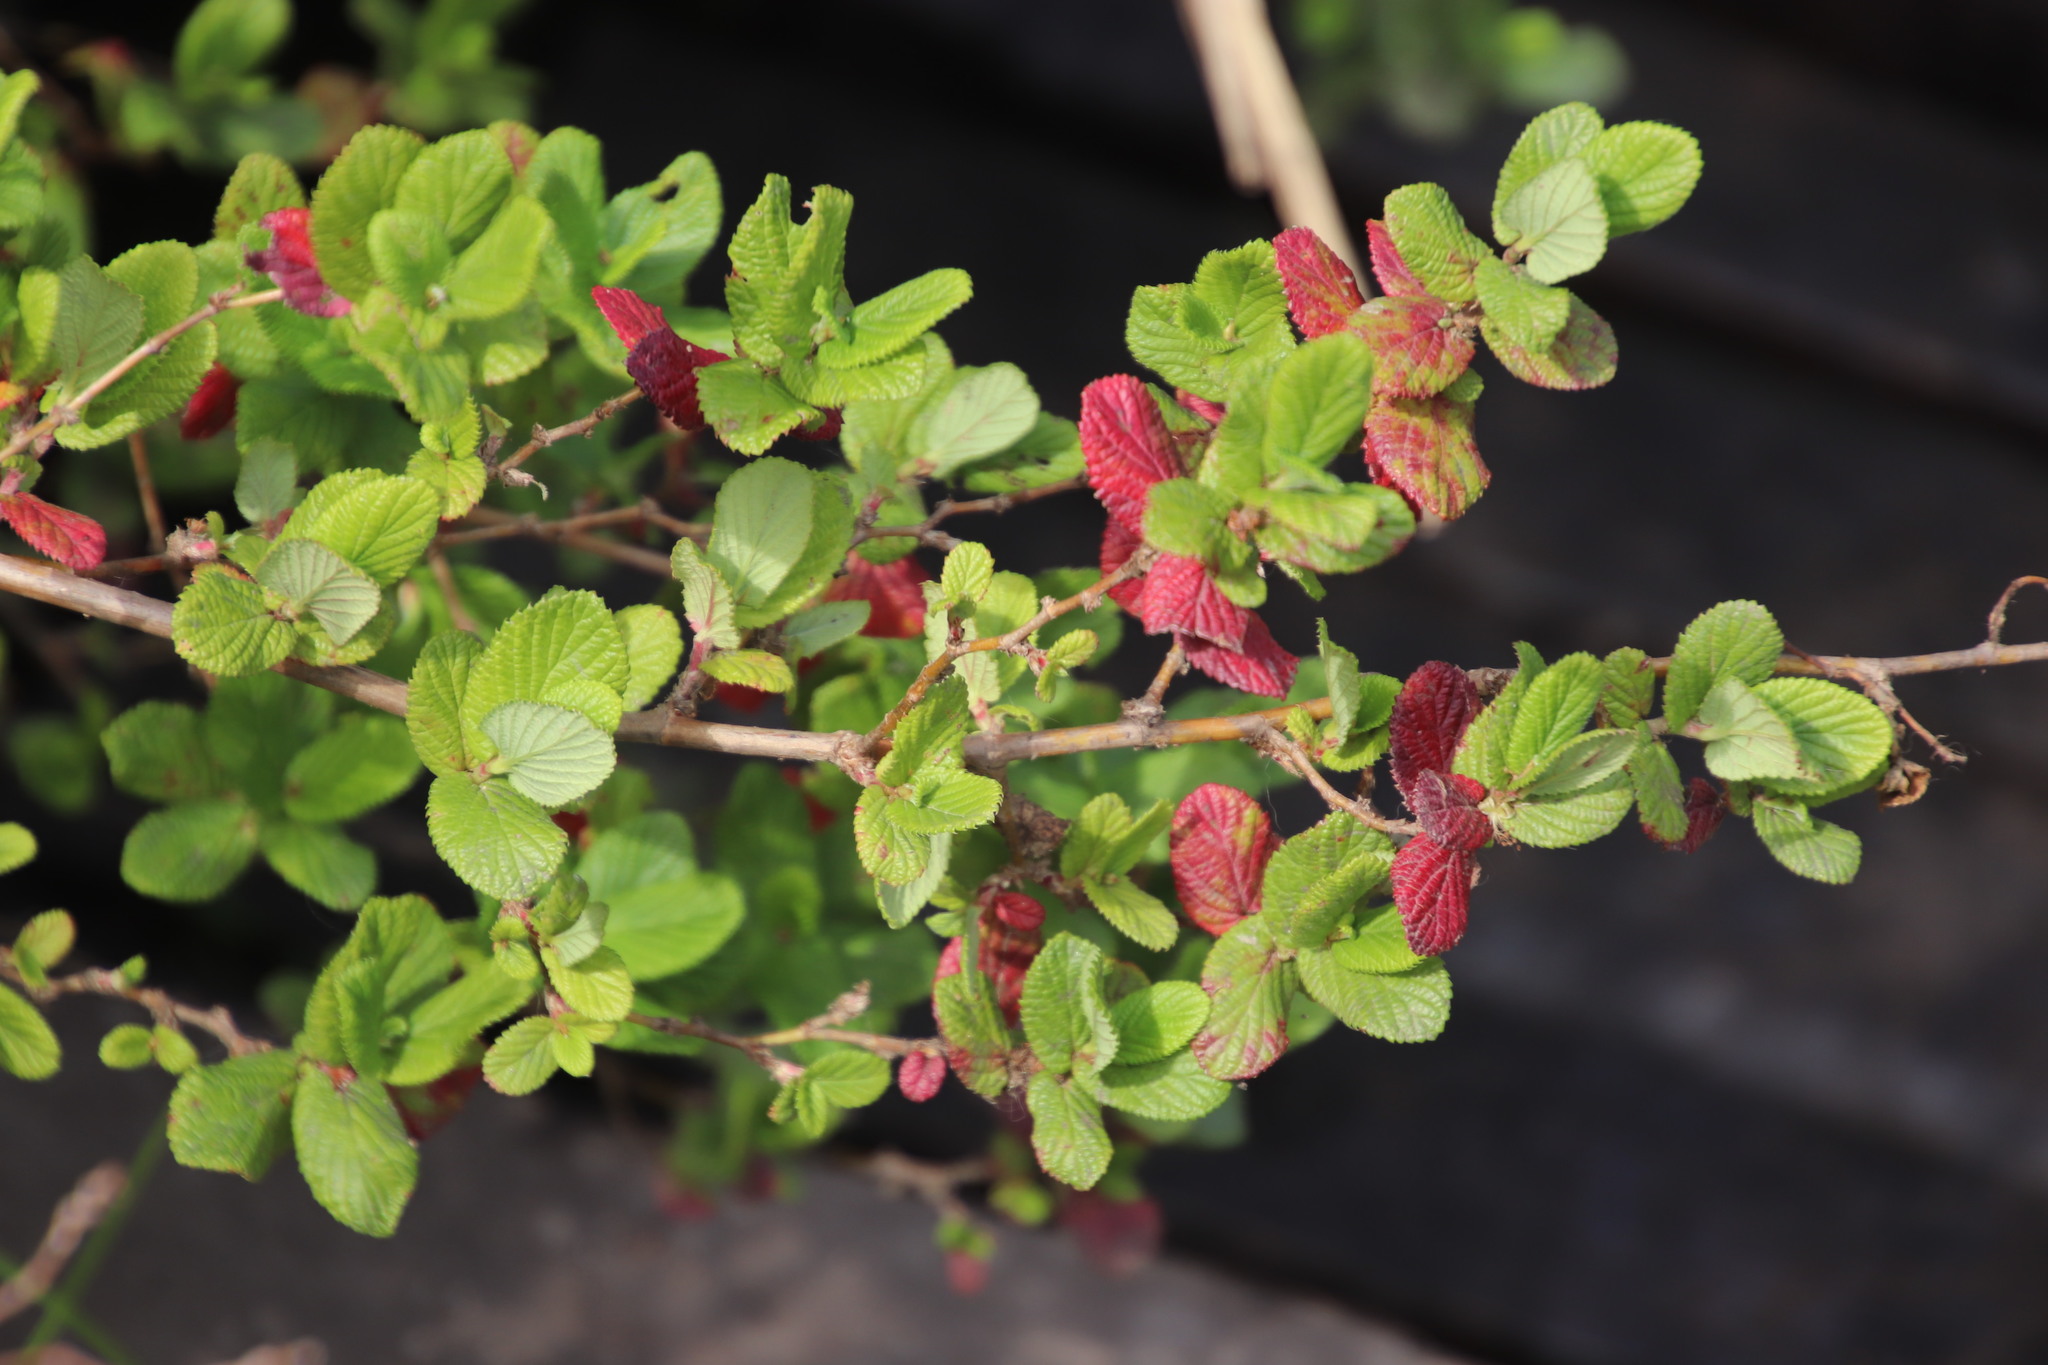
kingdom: Plantae
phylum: Tracheophyta
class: Magnoliopsida
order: Rosales
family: Rosaceae
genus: Cliffortia
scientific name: Cliffortia odorata
